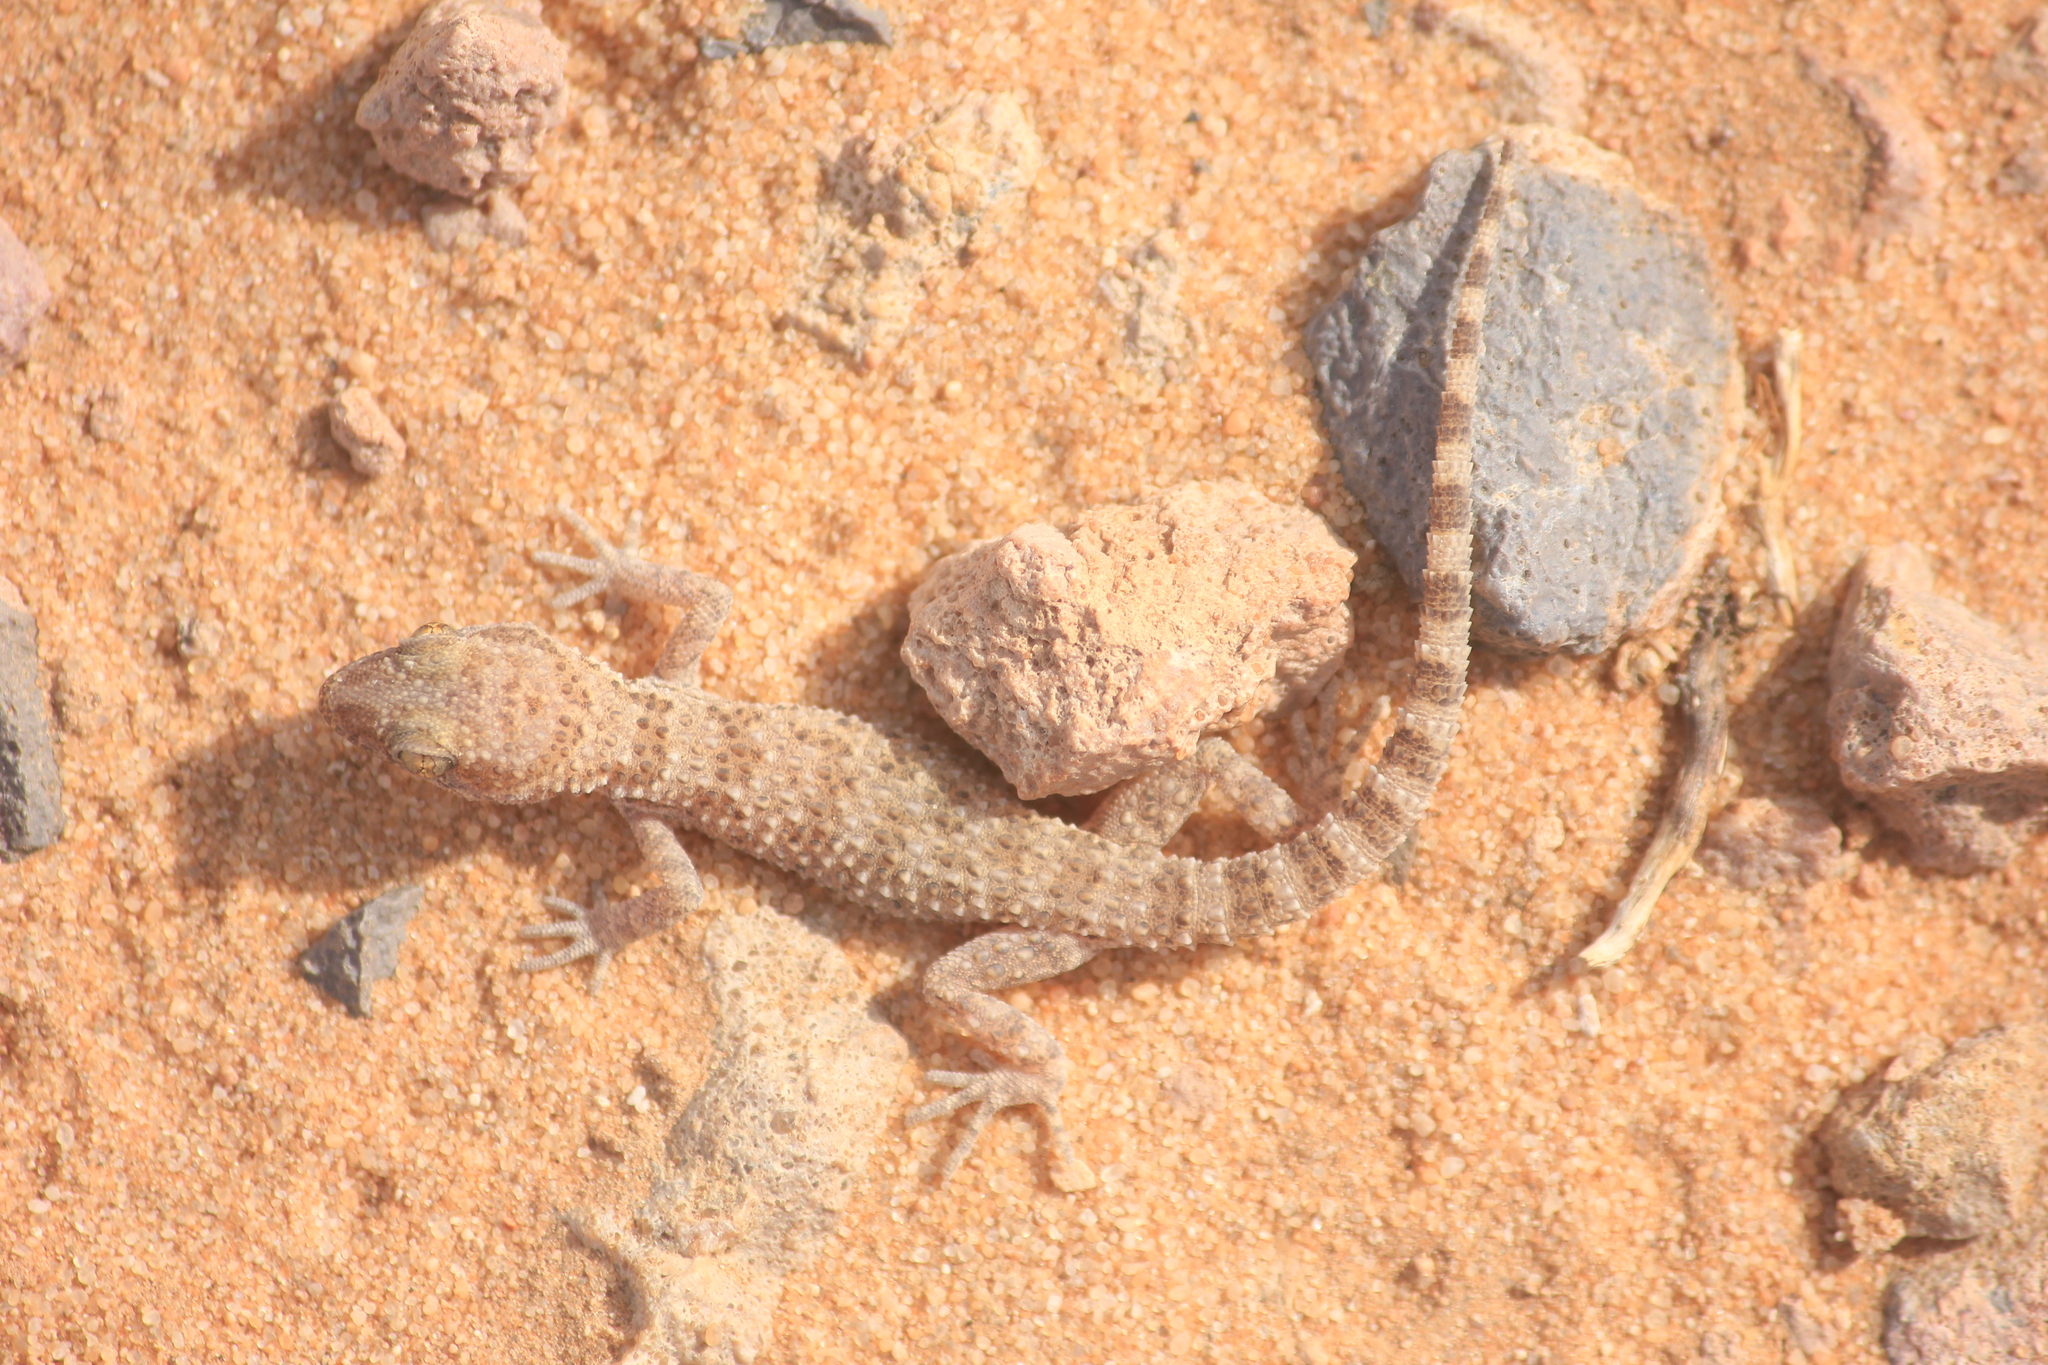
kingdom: Animalia
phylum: Chordata
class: Squamata
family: Gekkonidae
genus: Bunopus
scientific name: Bunopus tuberculatus
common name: Southern tuberculated gecko
